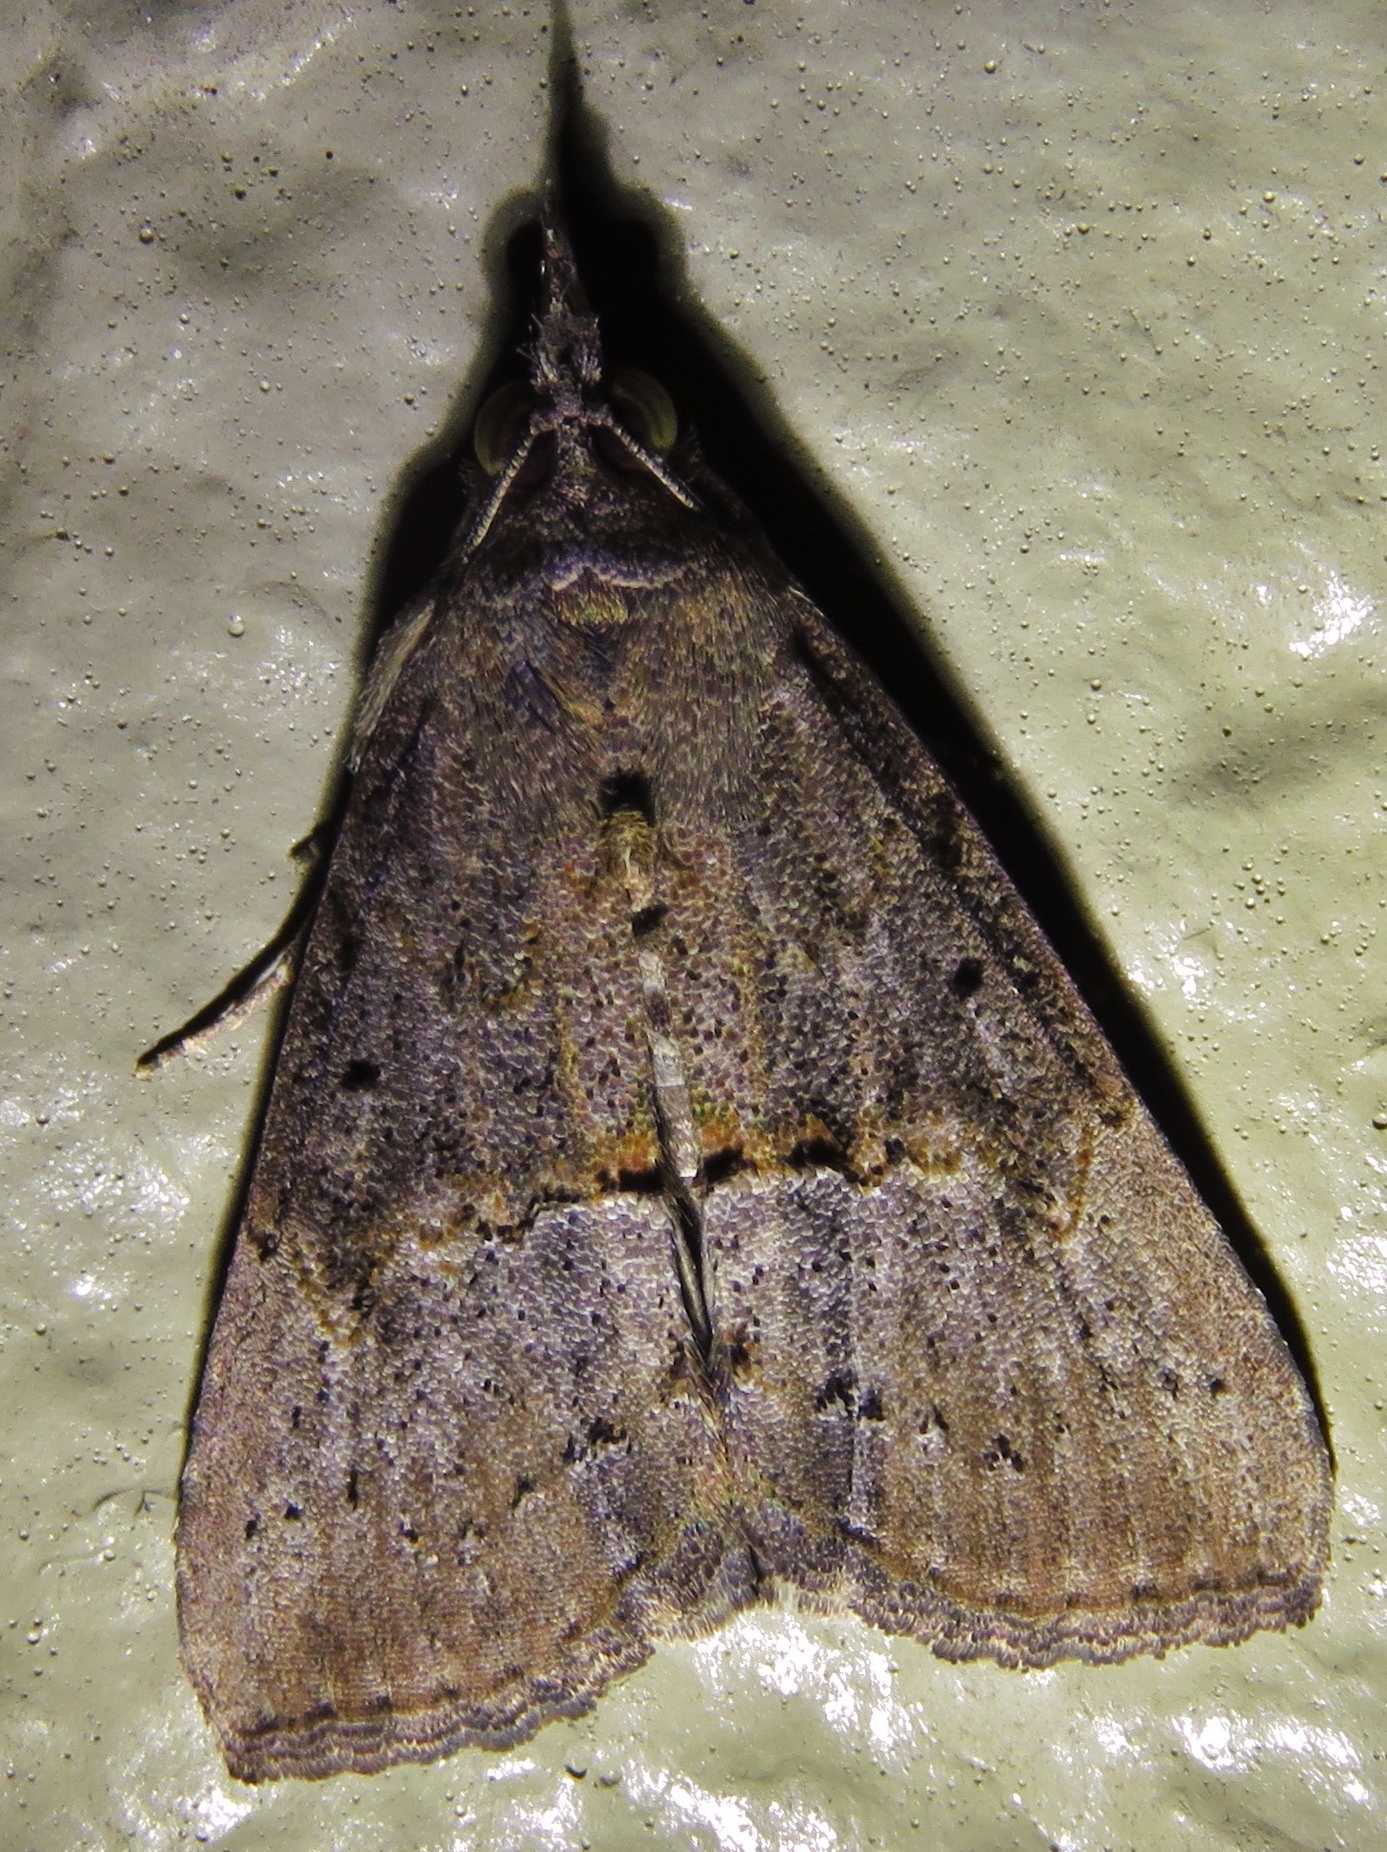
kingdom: Animalia
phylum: Arthropoda
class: Insecta
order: Lepidoptera
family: Erebidae
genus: Hypena
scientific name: Hypena scabra
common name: Green cloverworm
